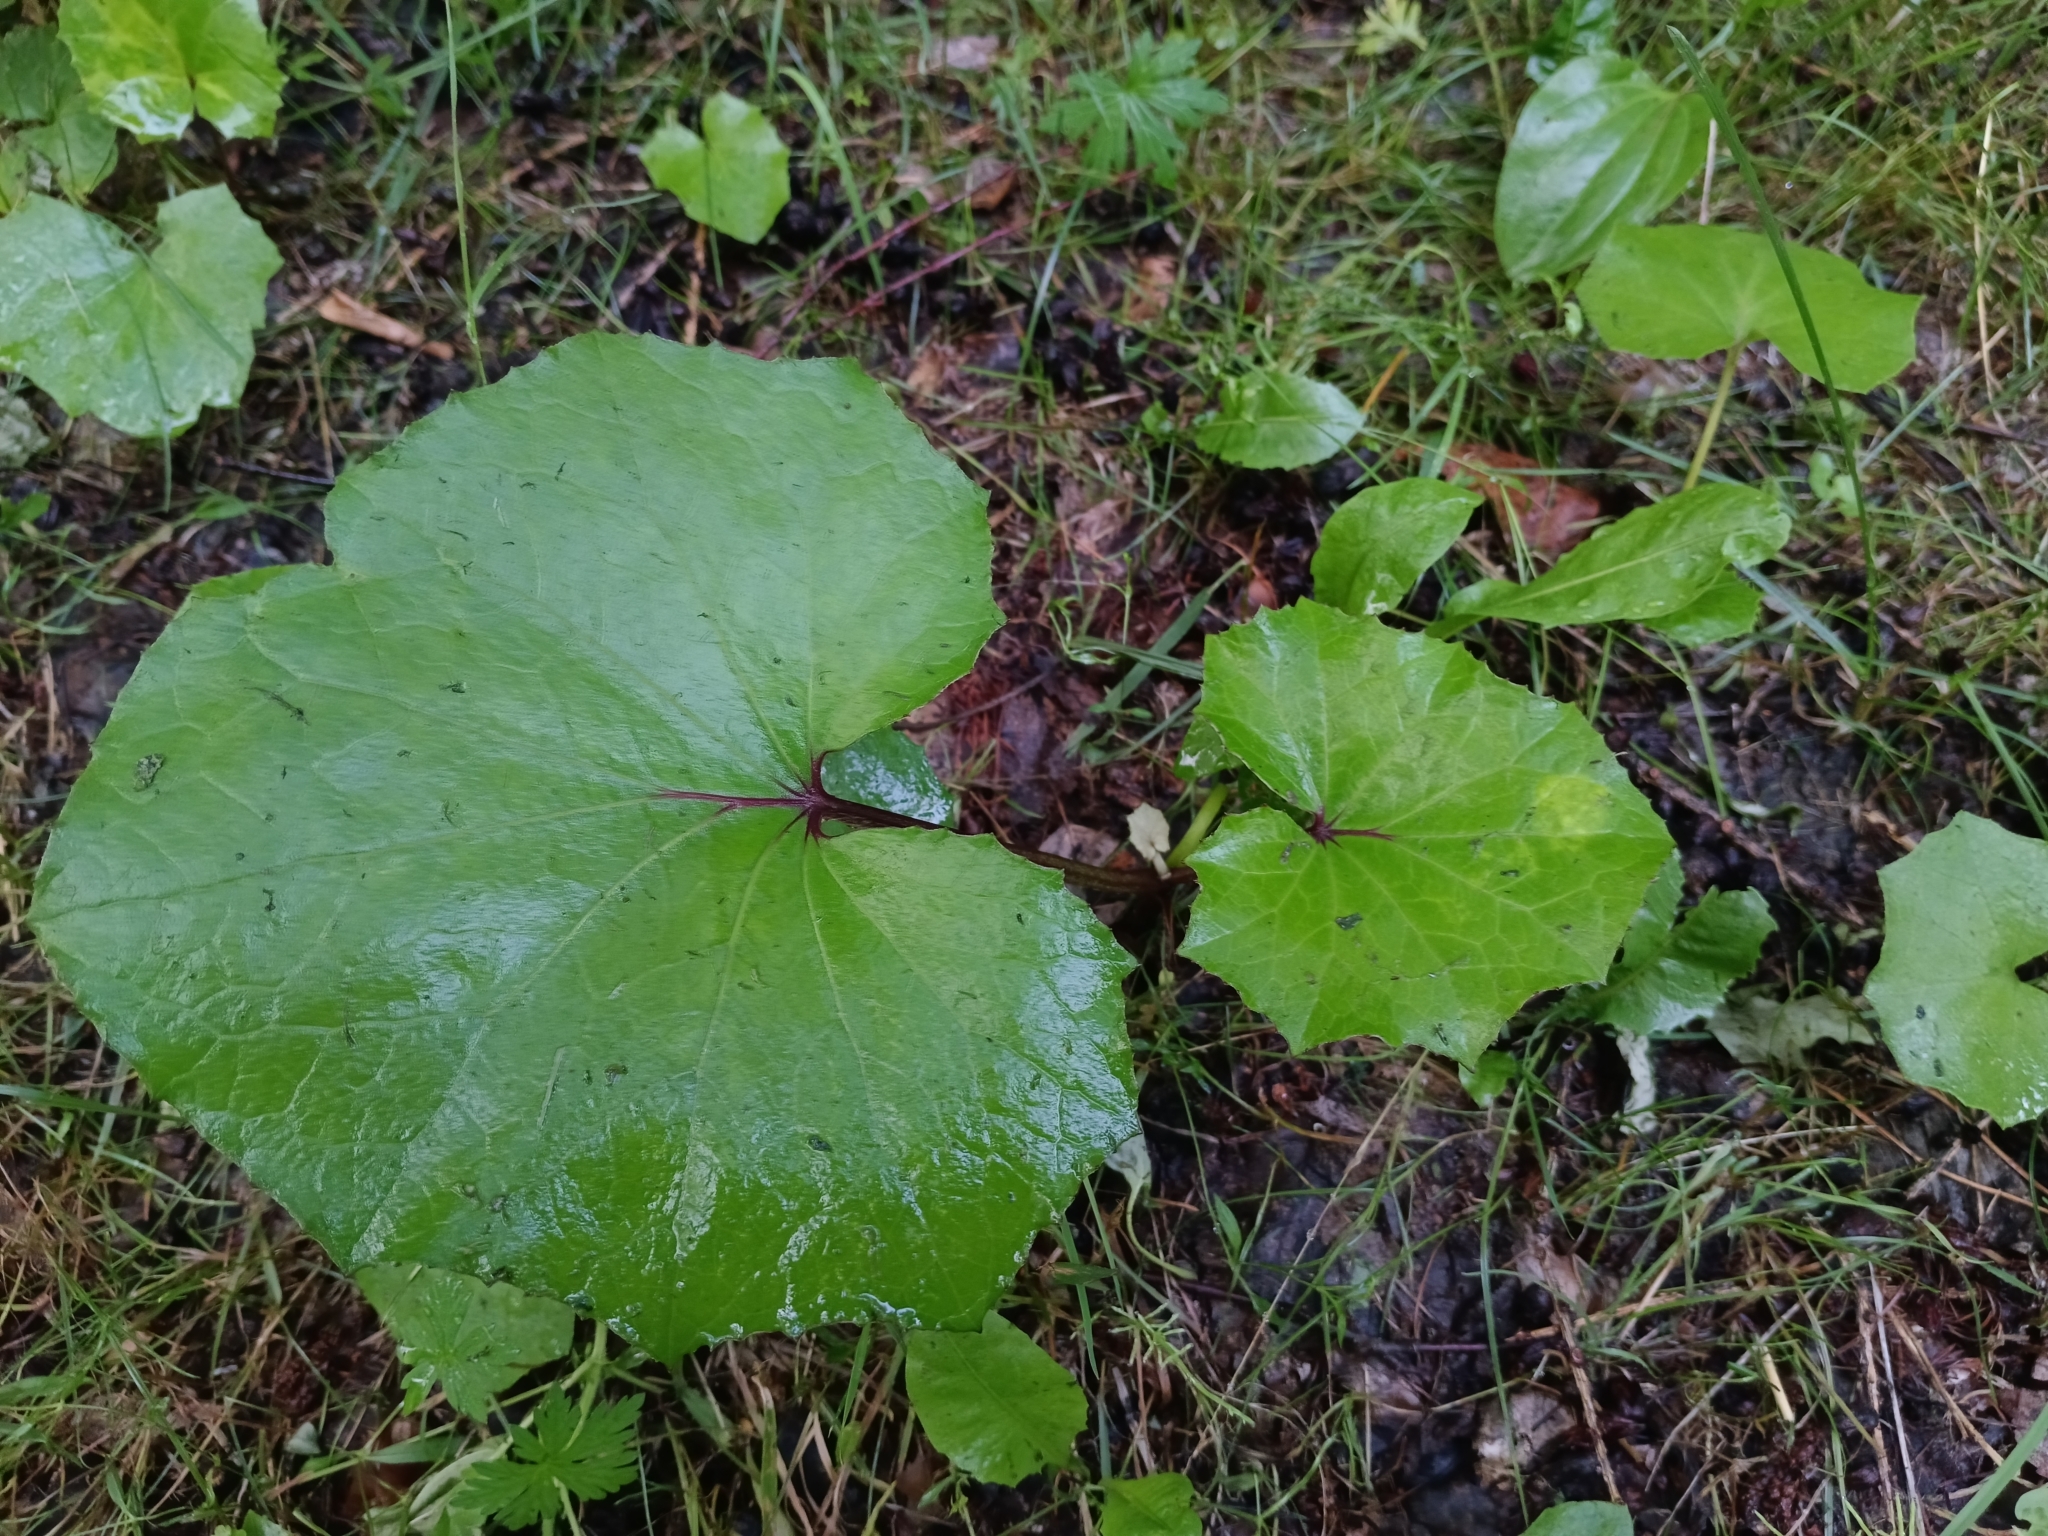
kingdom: Plantae
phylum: Tracheophyta
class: Magnoliopsida
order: Asterales
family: Asteraceae
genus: Tussilago
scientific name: Tussilago farfara
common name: Coltsfoot
